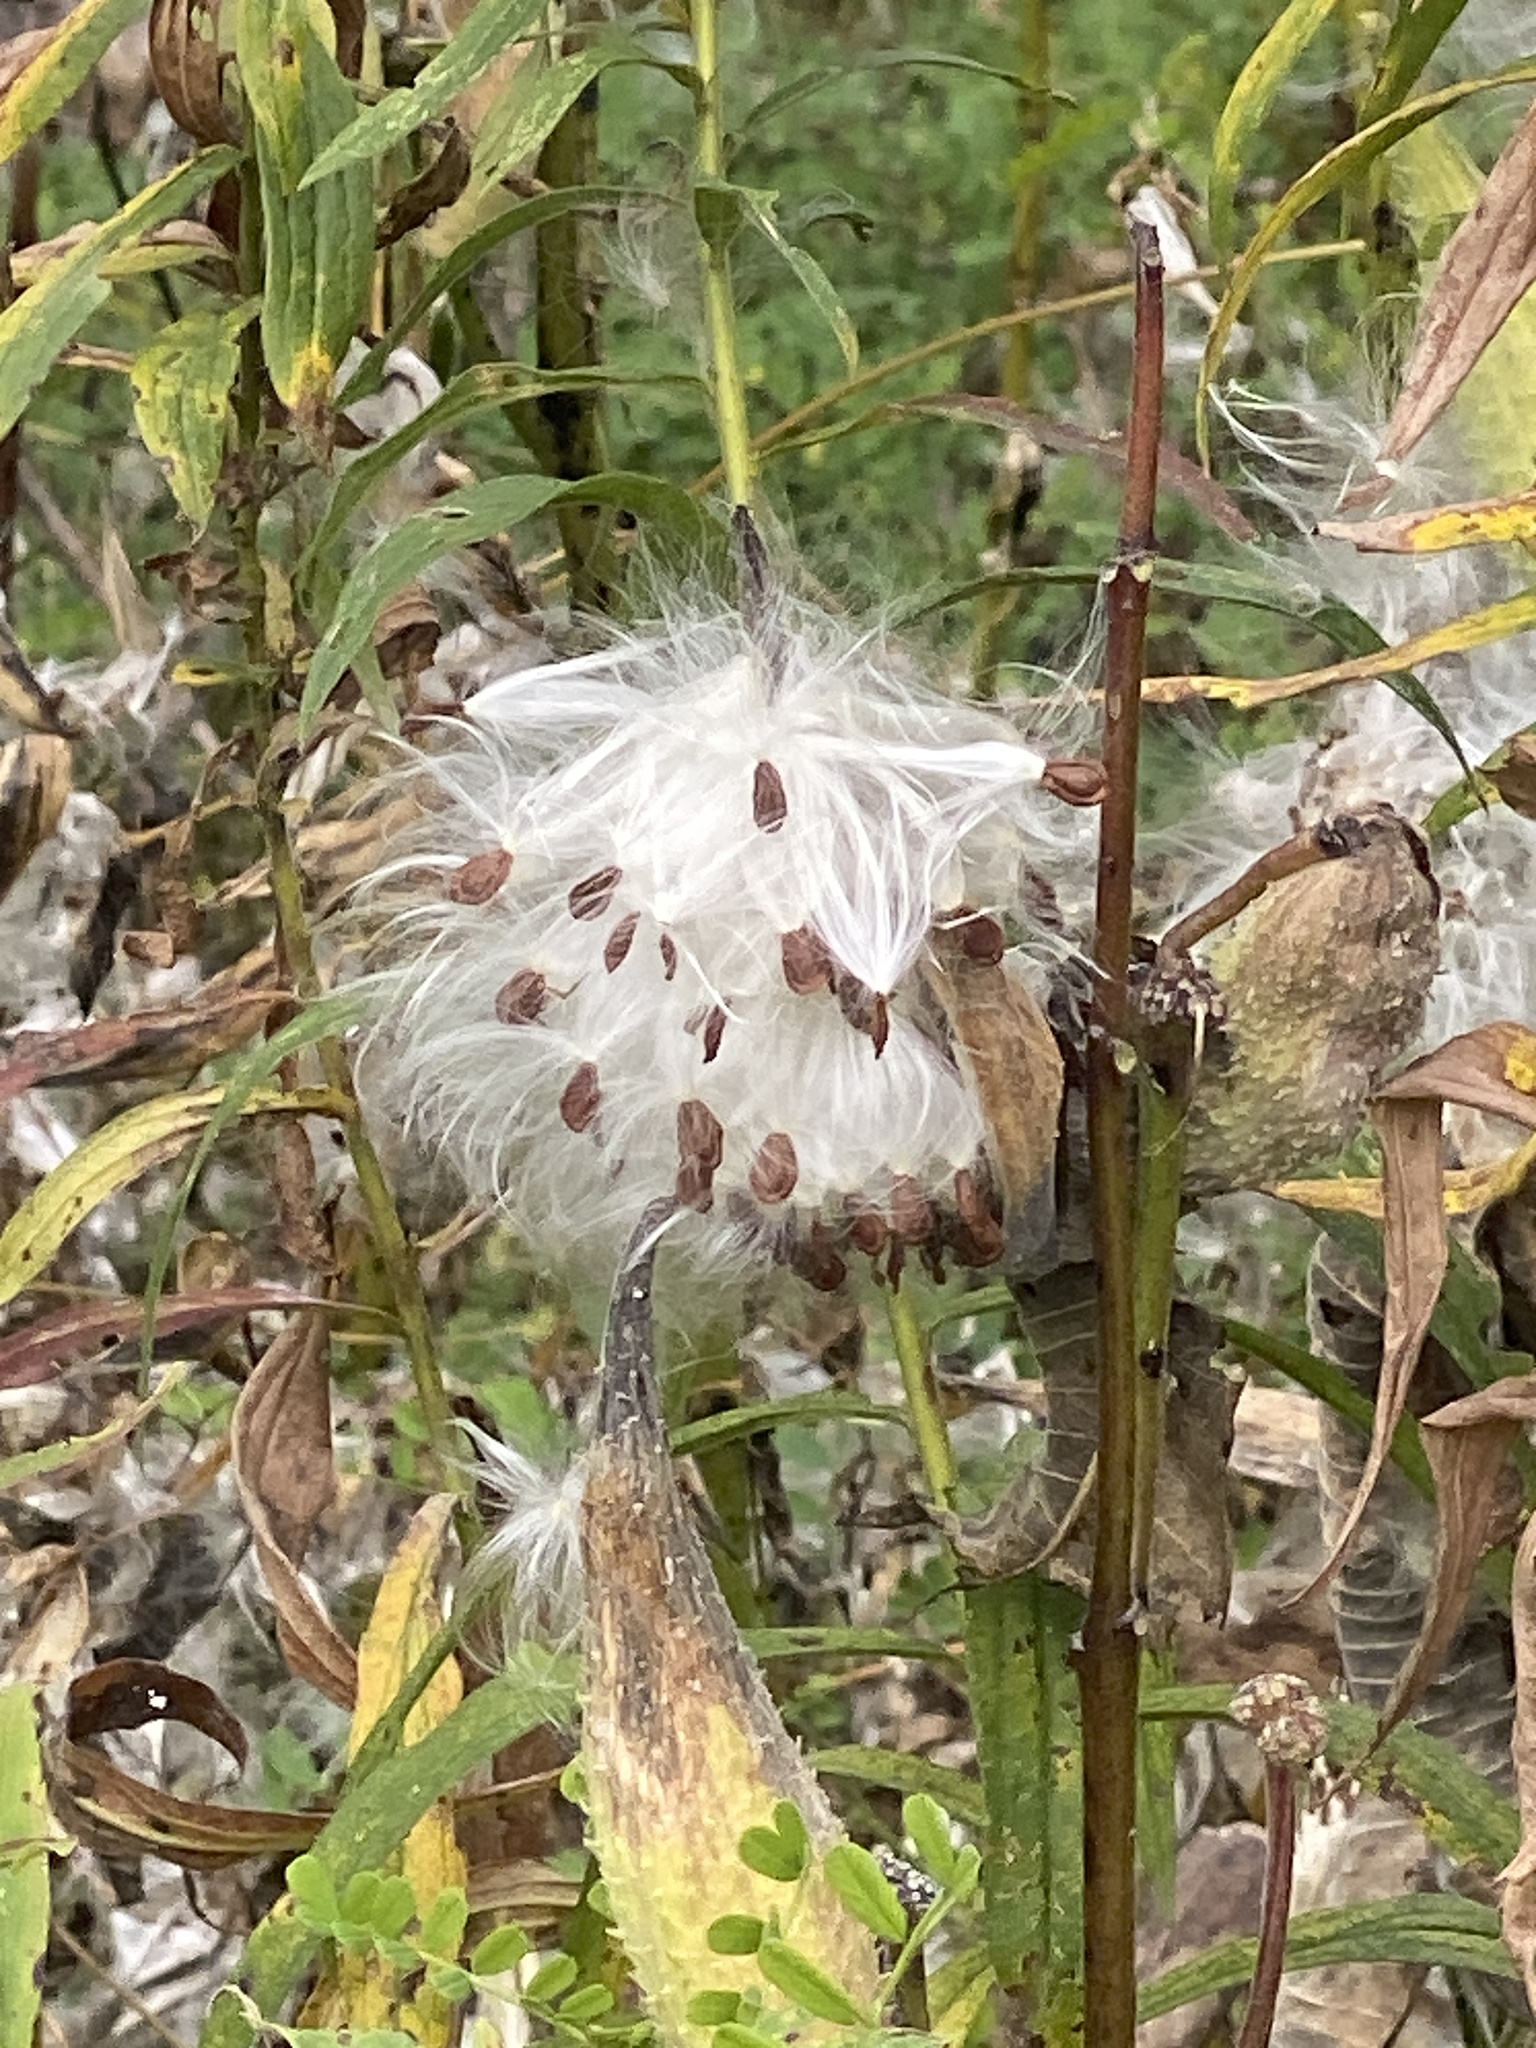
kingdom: Plantae
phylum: Tracheophyta
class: Magnoliopsida
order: Gentianales
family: Apocynaceae
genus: Asclepias
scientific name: Asclepias syriaca
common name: Common milkweed
